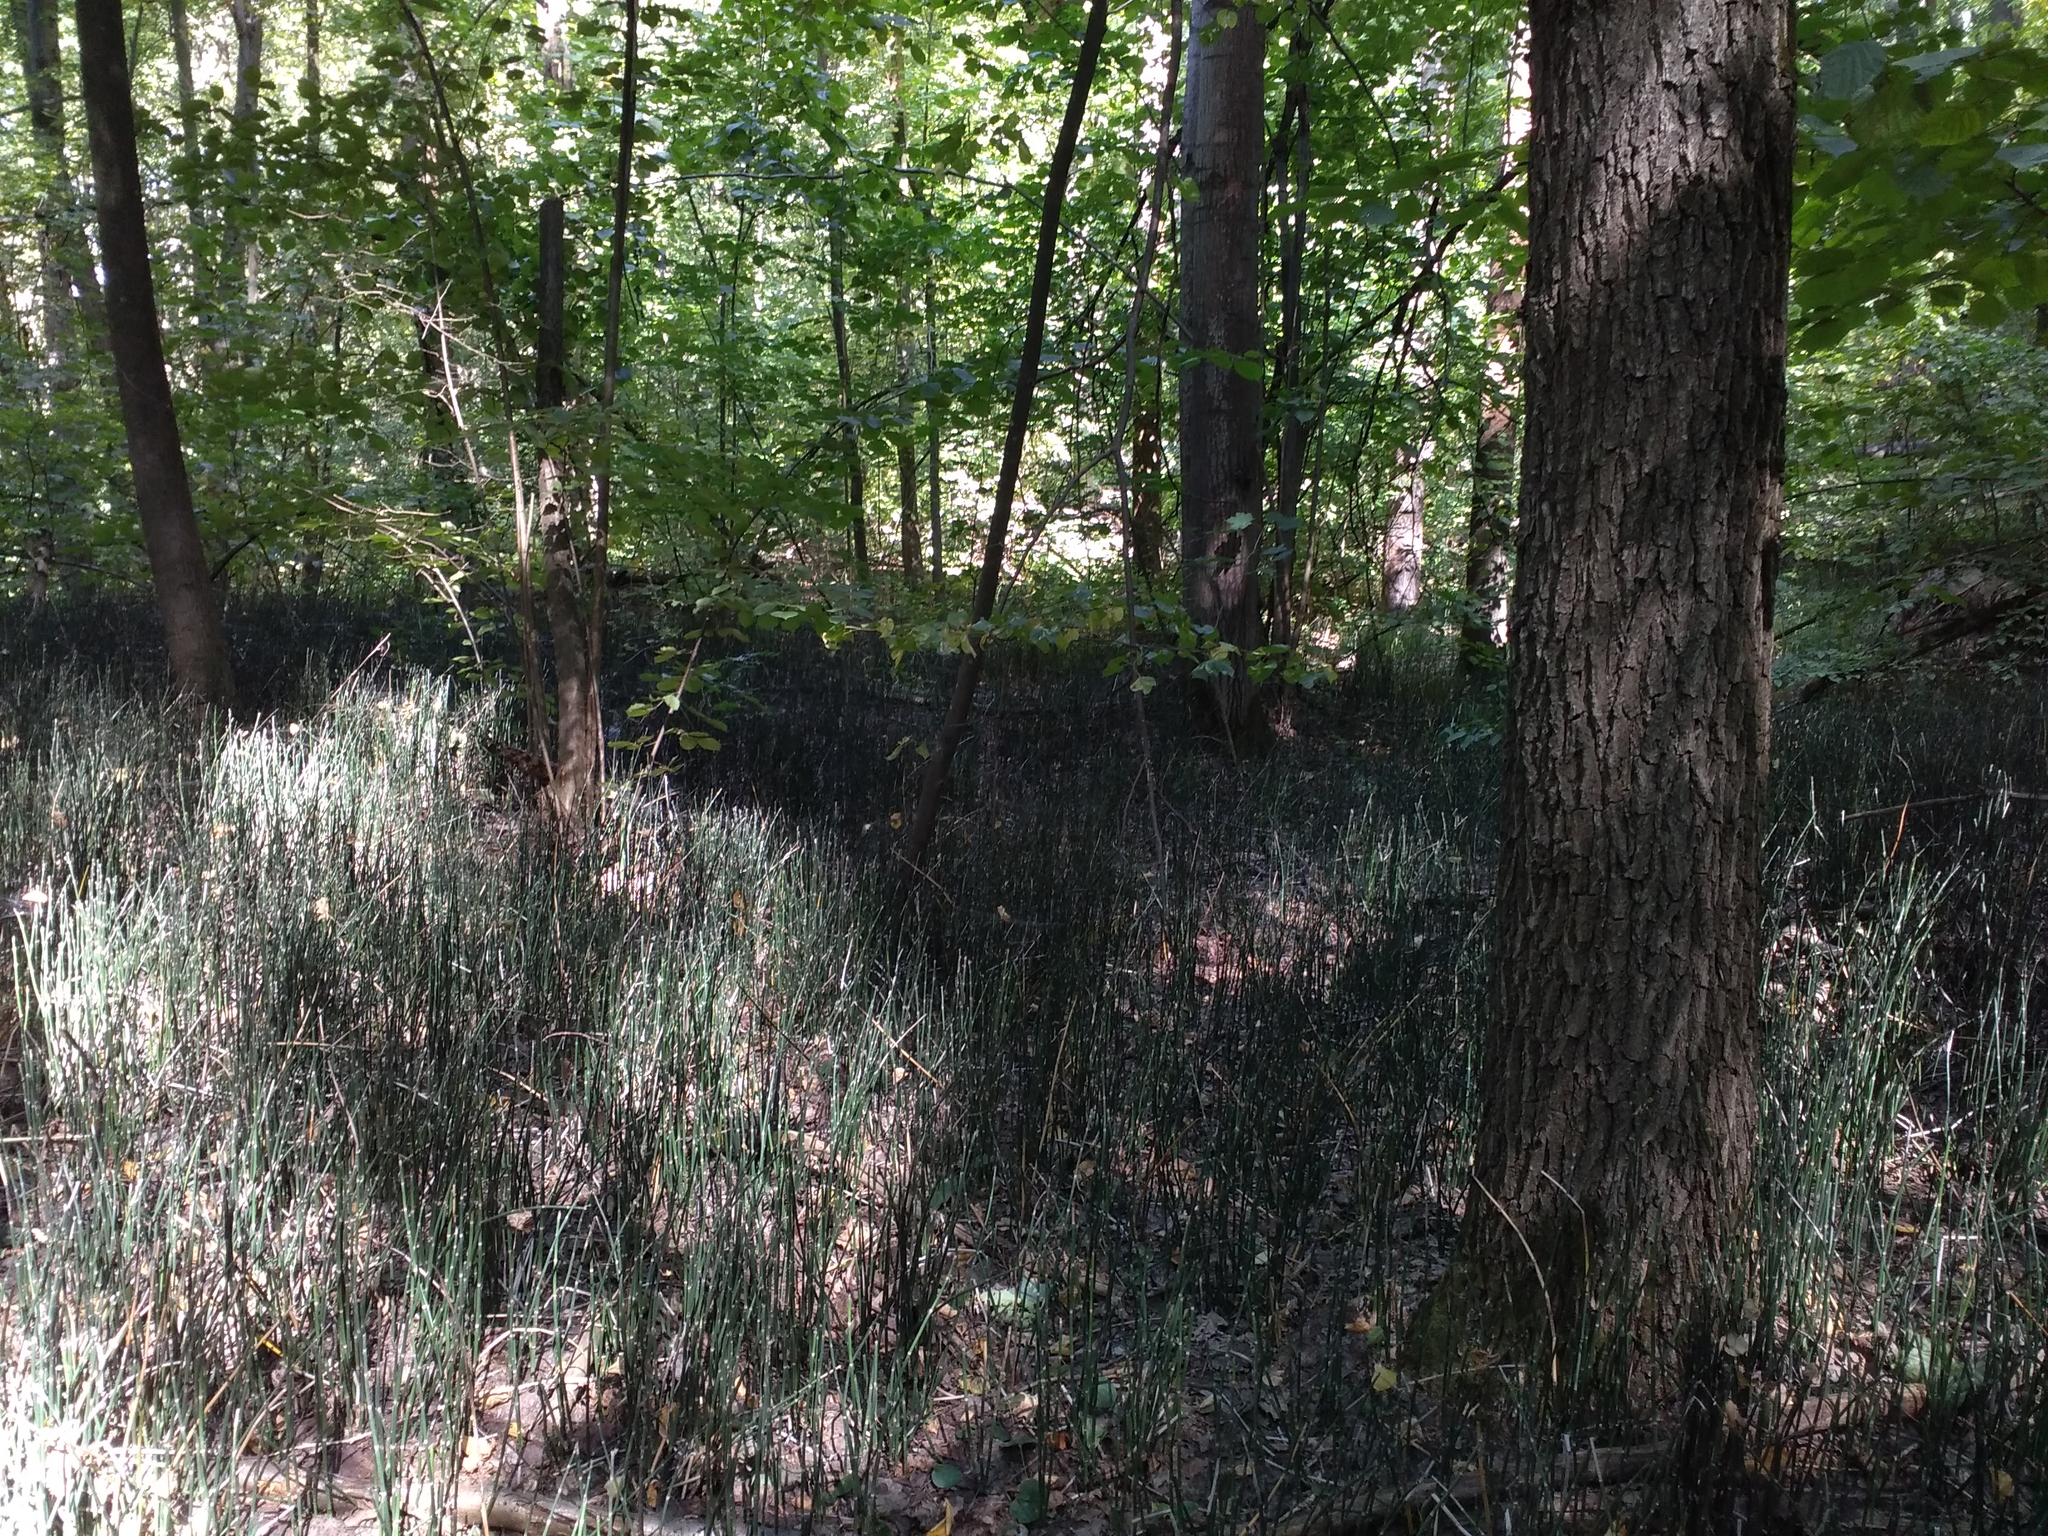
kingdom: Plantae
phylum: Tracheophyta
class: Polypodiopsida
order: Equisetales
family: Equisetaceae
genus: Equisetum
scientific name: Equisetum hyemale
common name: Rough horsetail
